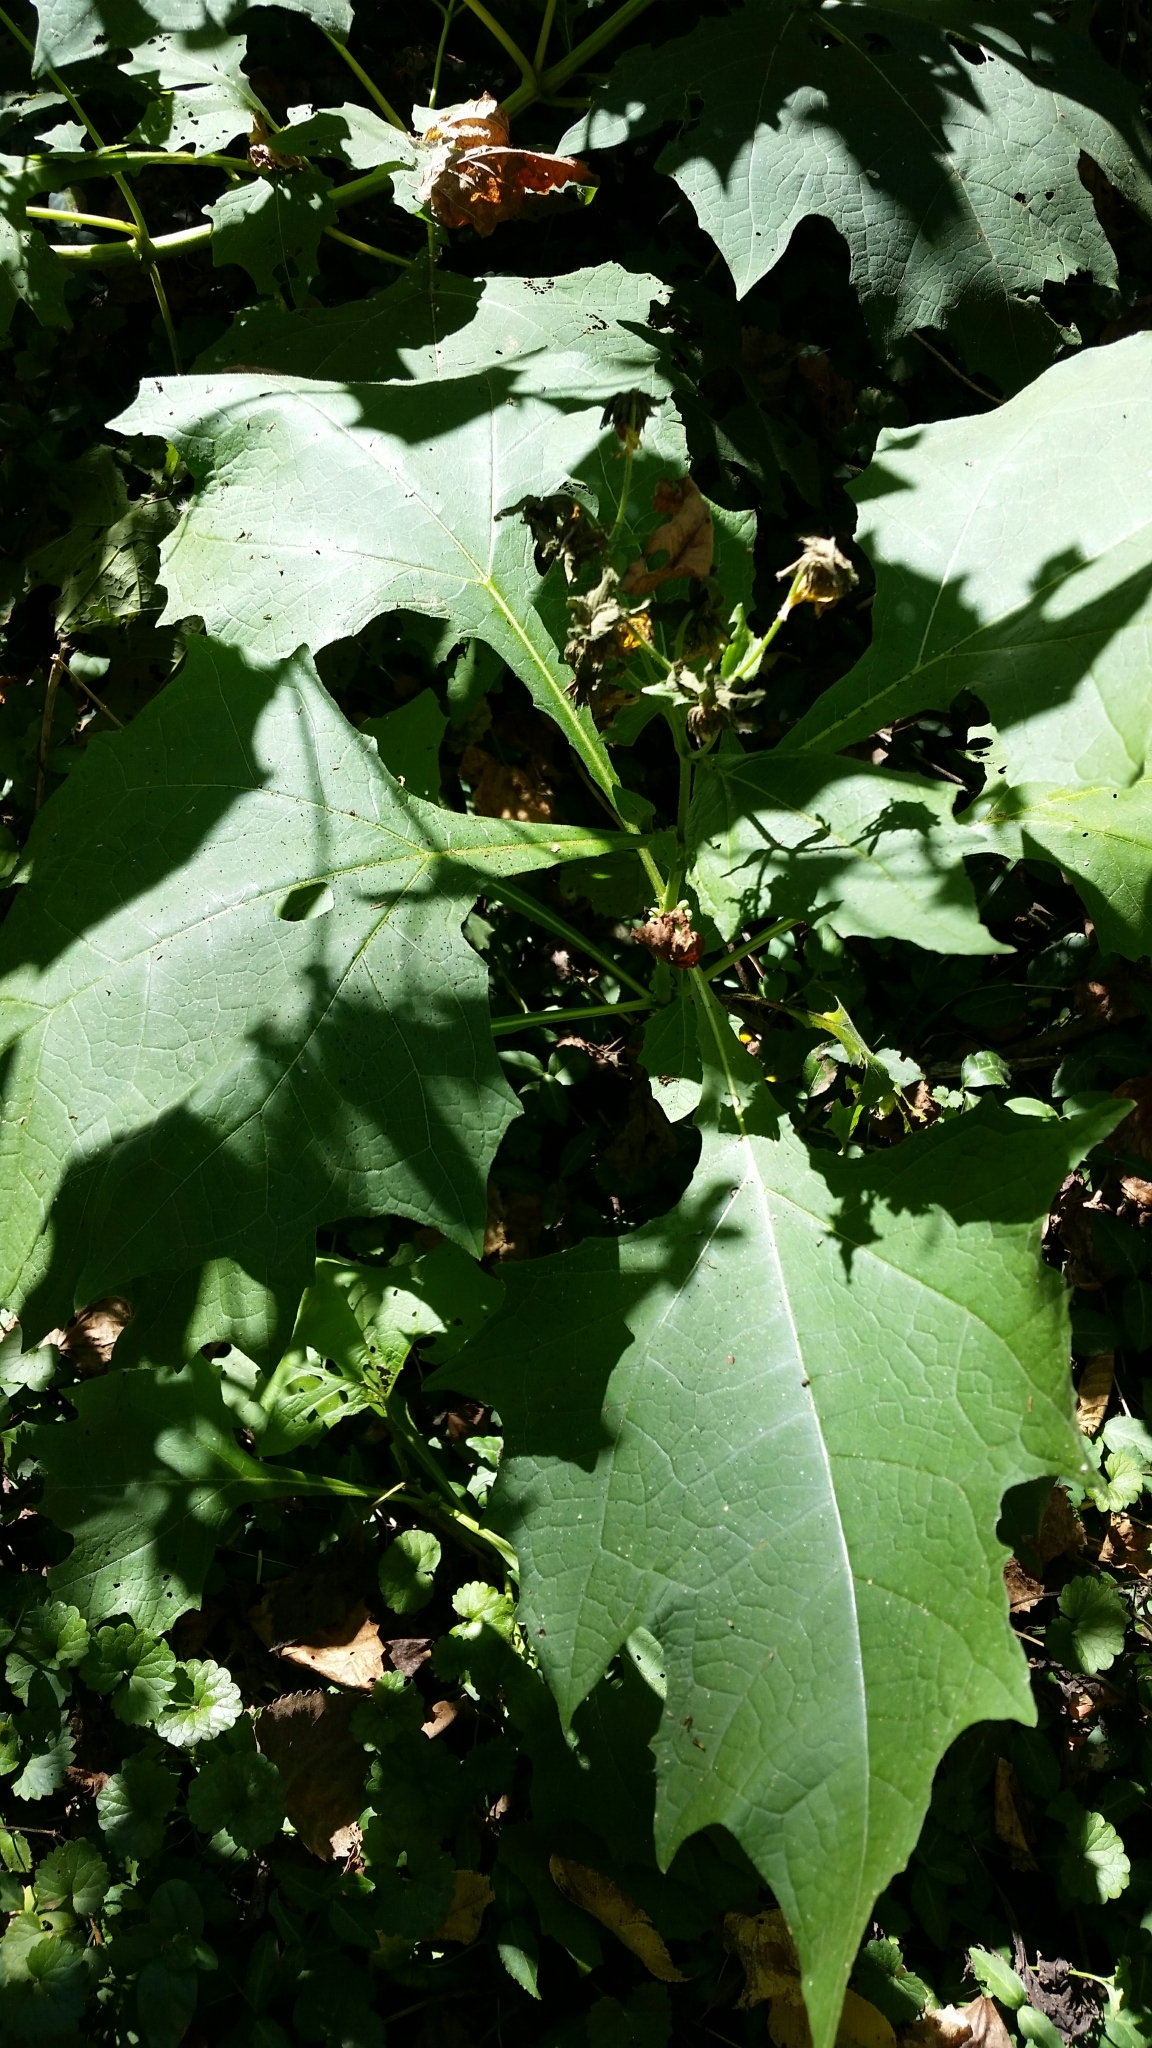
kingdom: Plantae
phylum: Tracheophyta
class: Magnoliopsida
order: Asterales
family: Asteraceae
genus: Smallanthus
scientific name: Smallanthus uvedalia
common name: Bear's-foot
